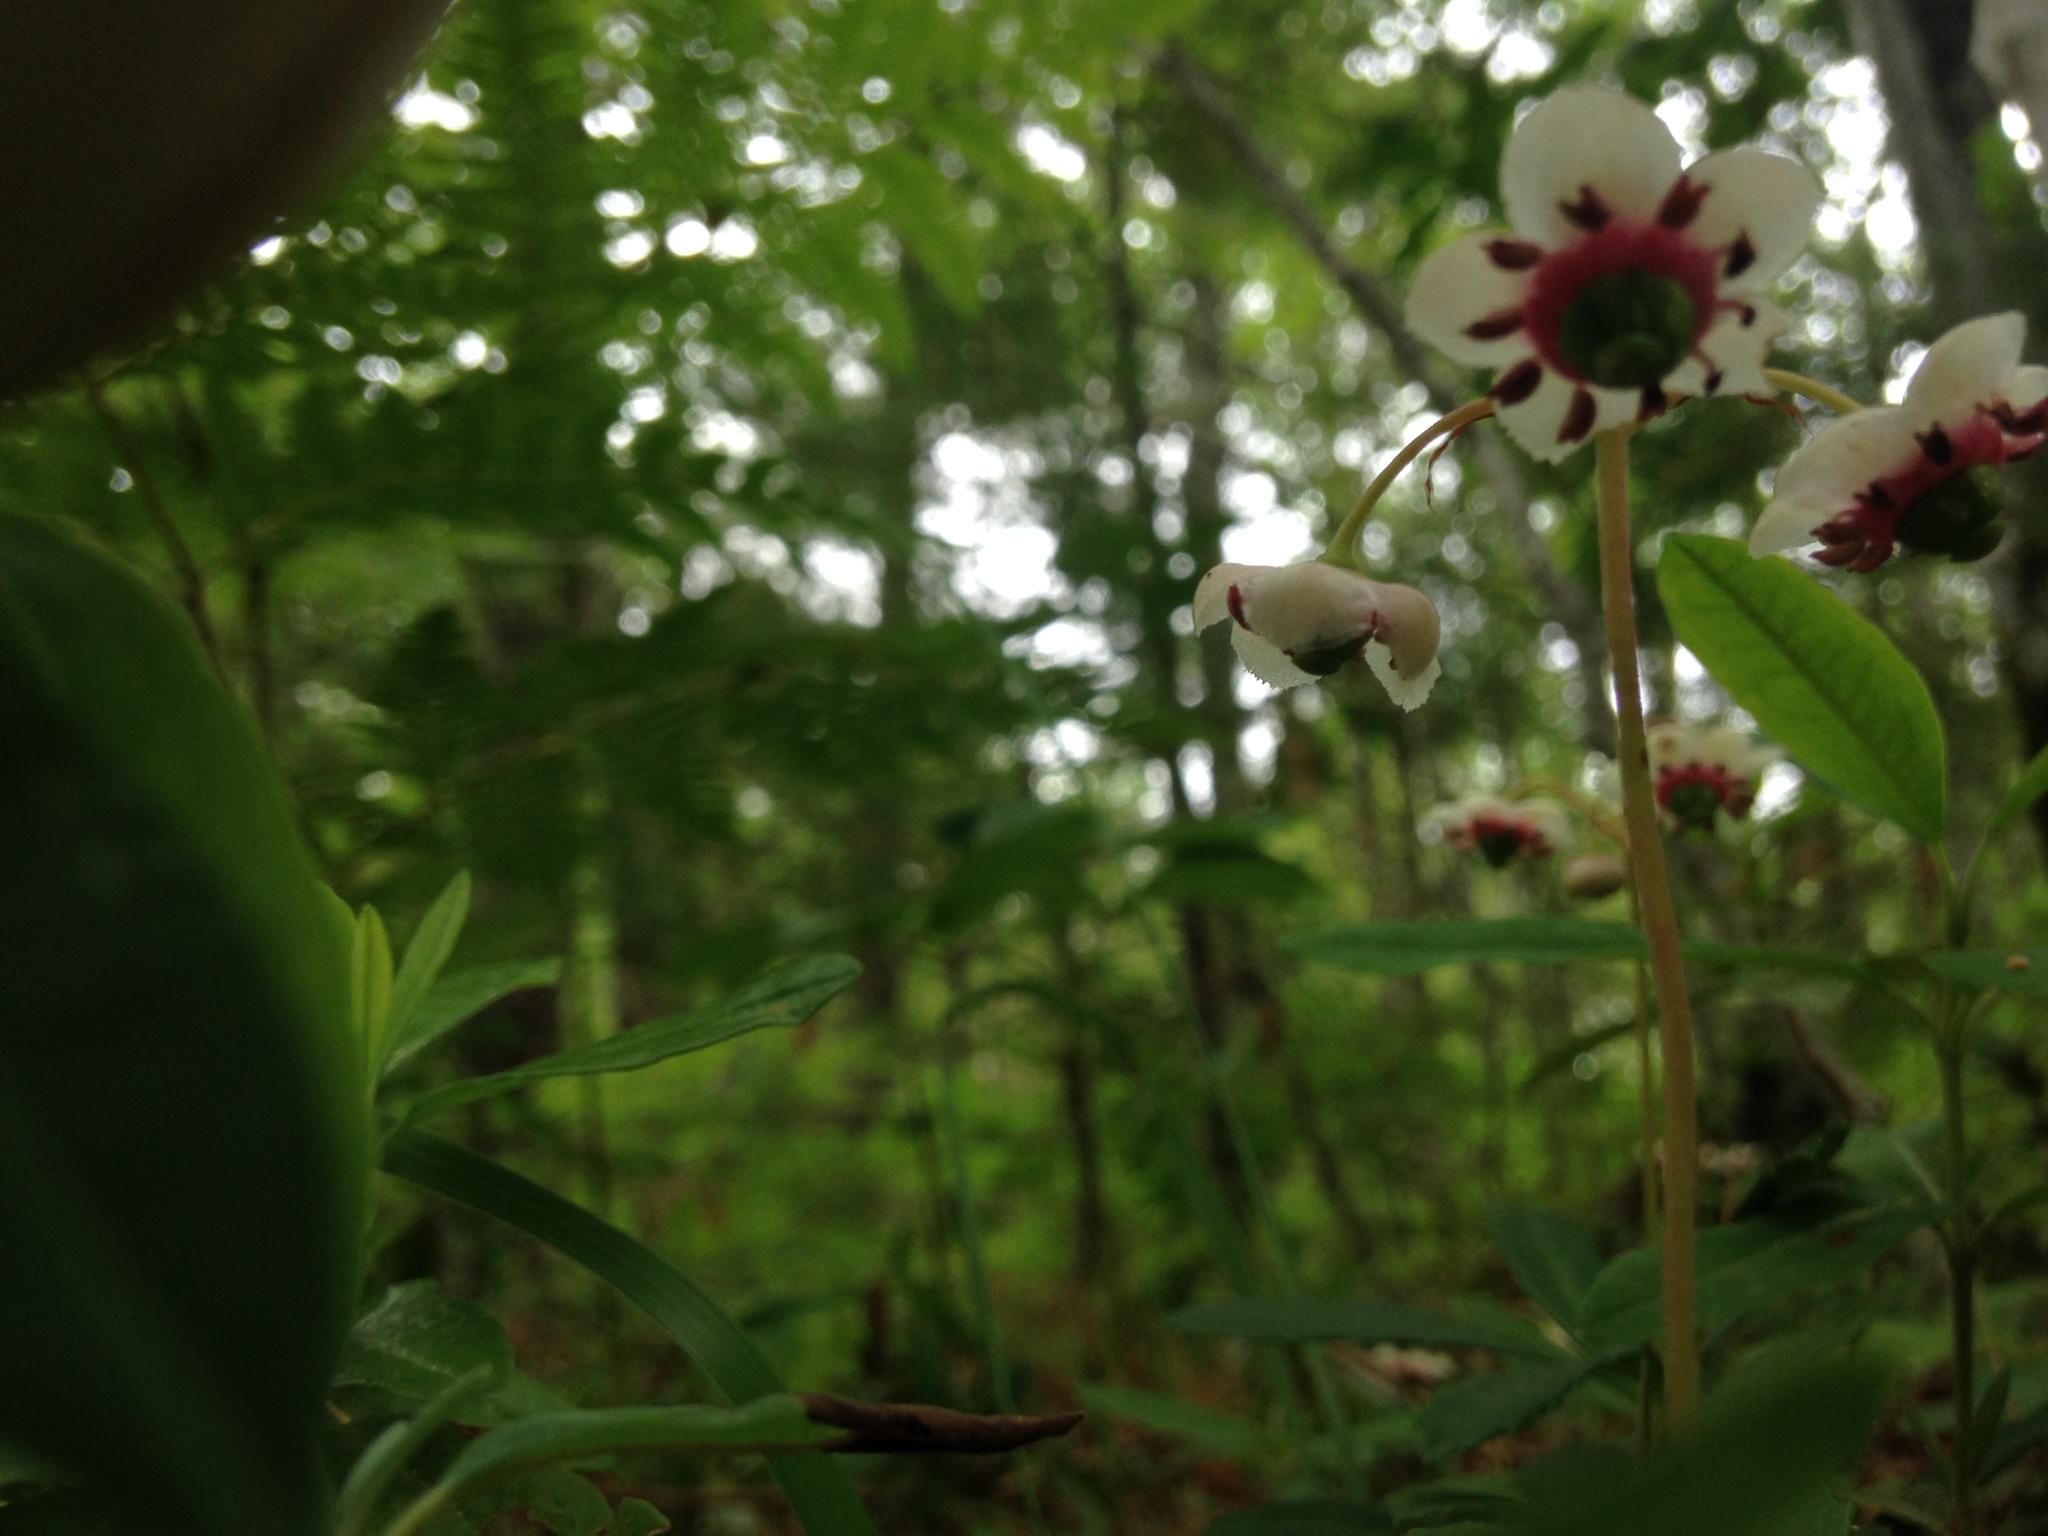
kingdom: Plantae
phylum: Tracheophyta
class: Magnoliopsida
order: Ericales
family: Ericaceae
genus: Chimaphila
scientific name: Chimaphila umbellata
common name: Pipsissewa
